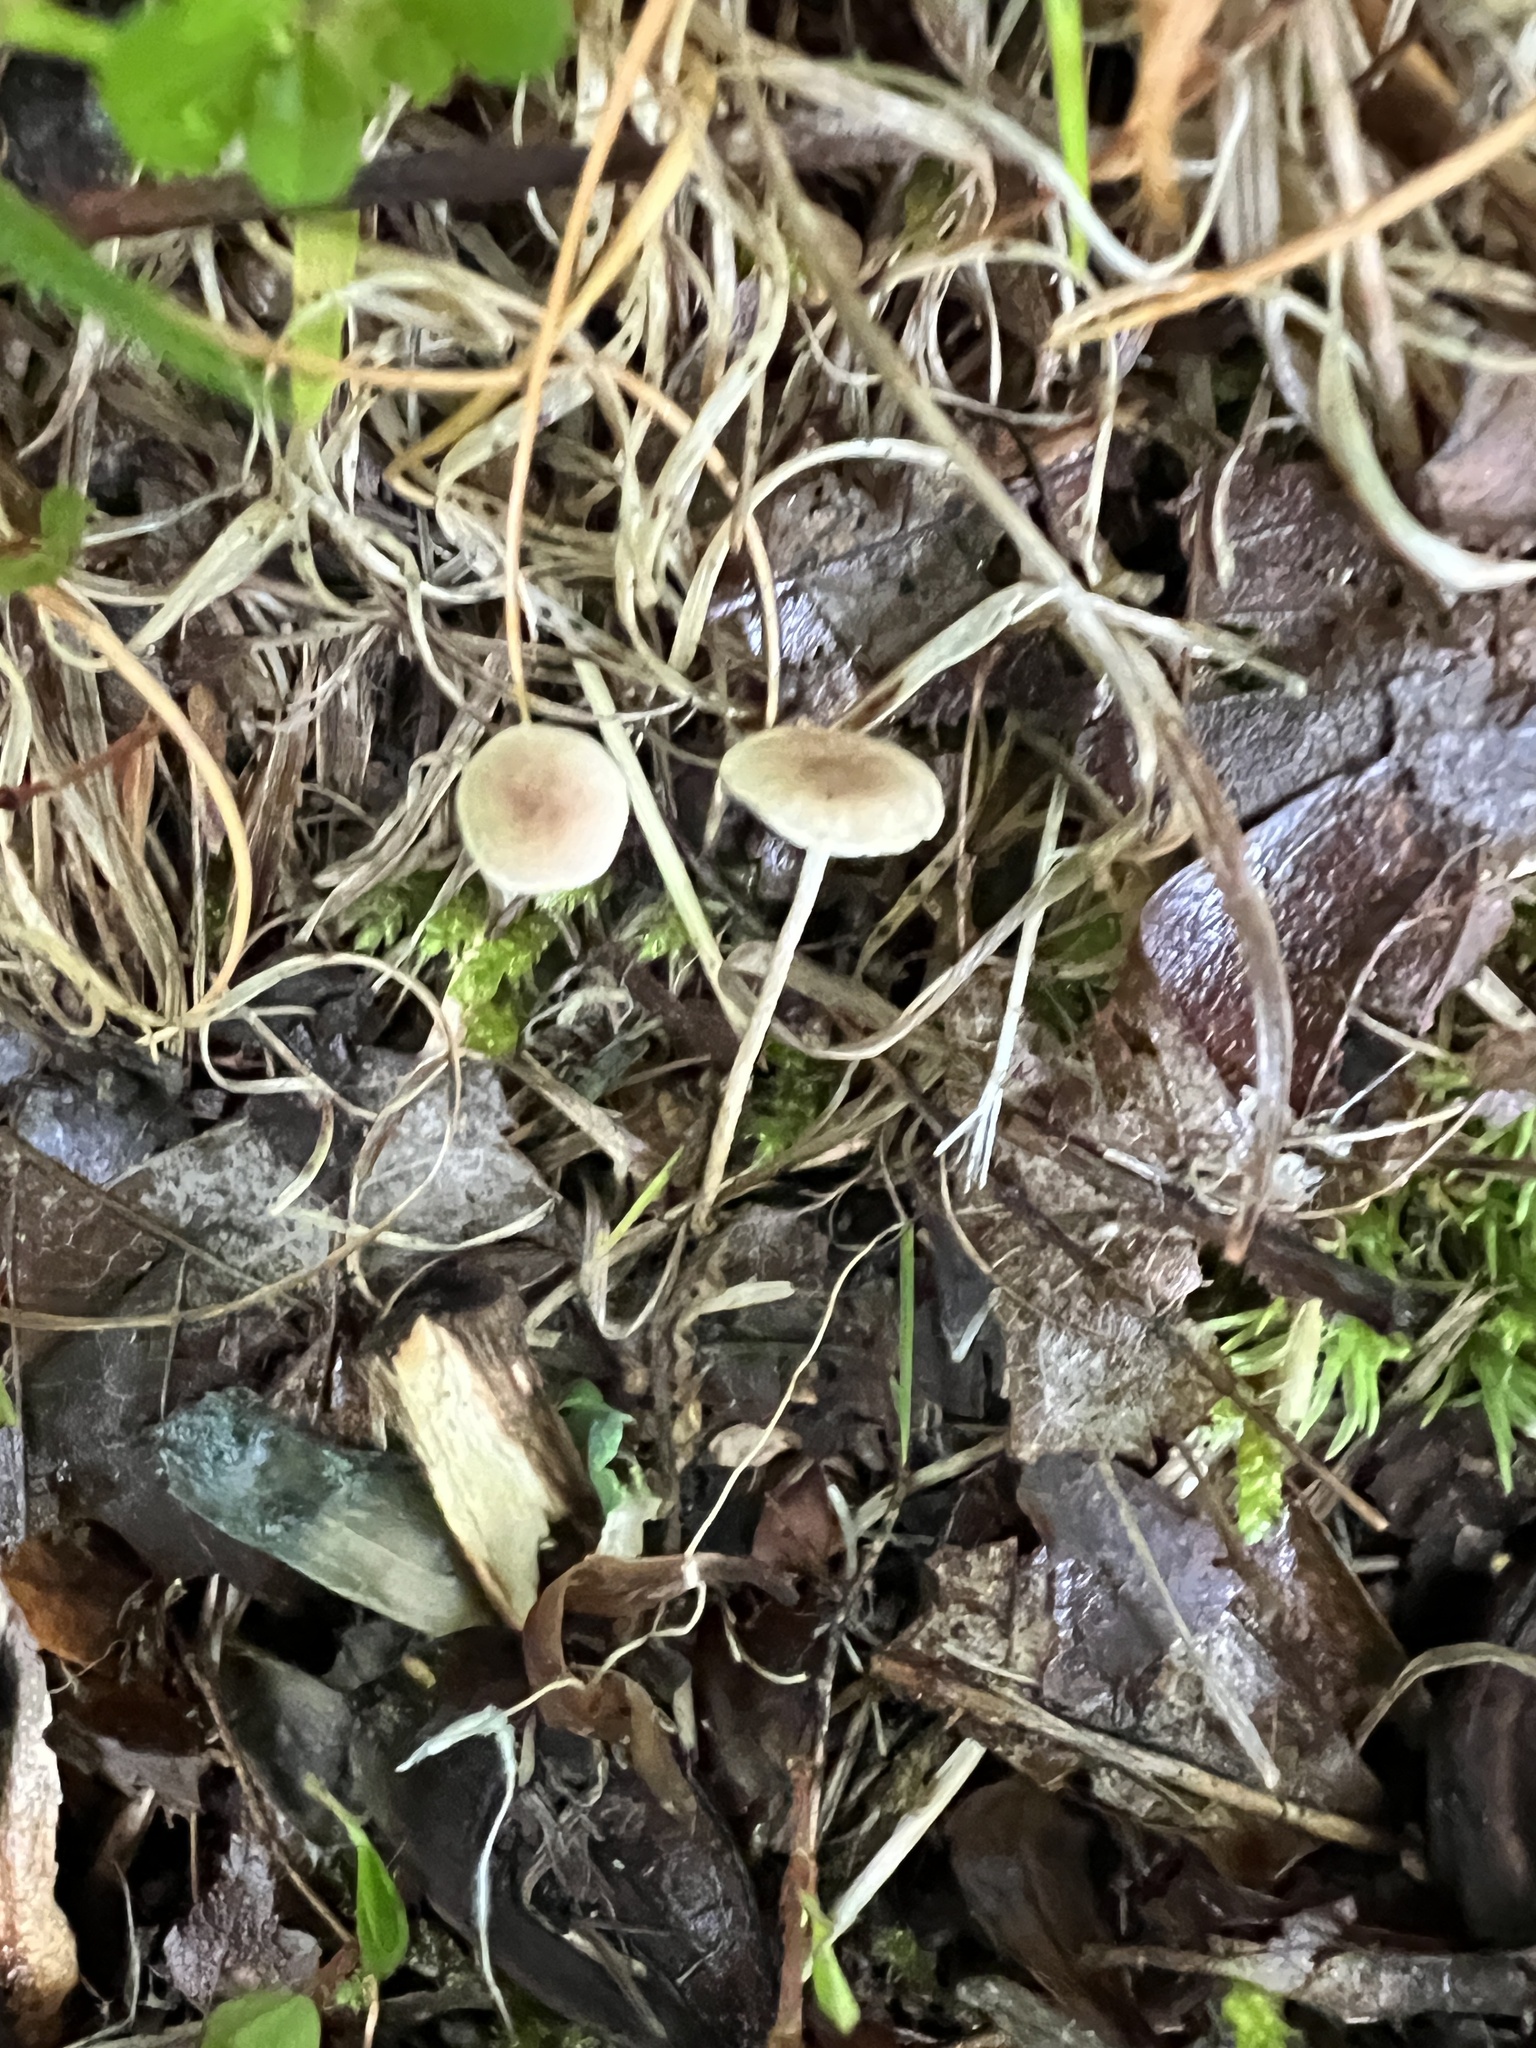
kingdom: Fungi
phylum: Basidiomycota
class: Agaricomycetes
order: Agaricales
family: Omphalotaceae
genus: Mycetinis
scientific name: Mycetinis opacus
